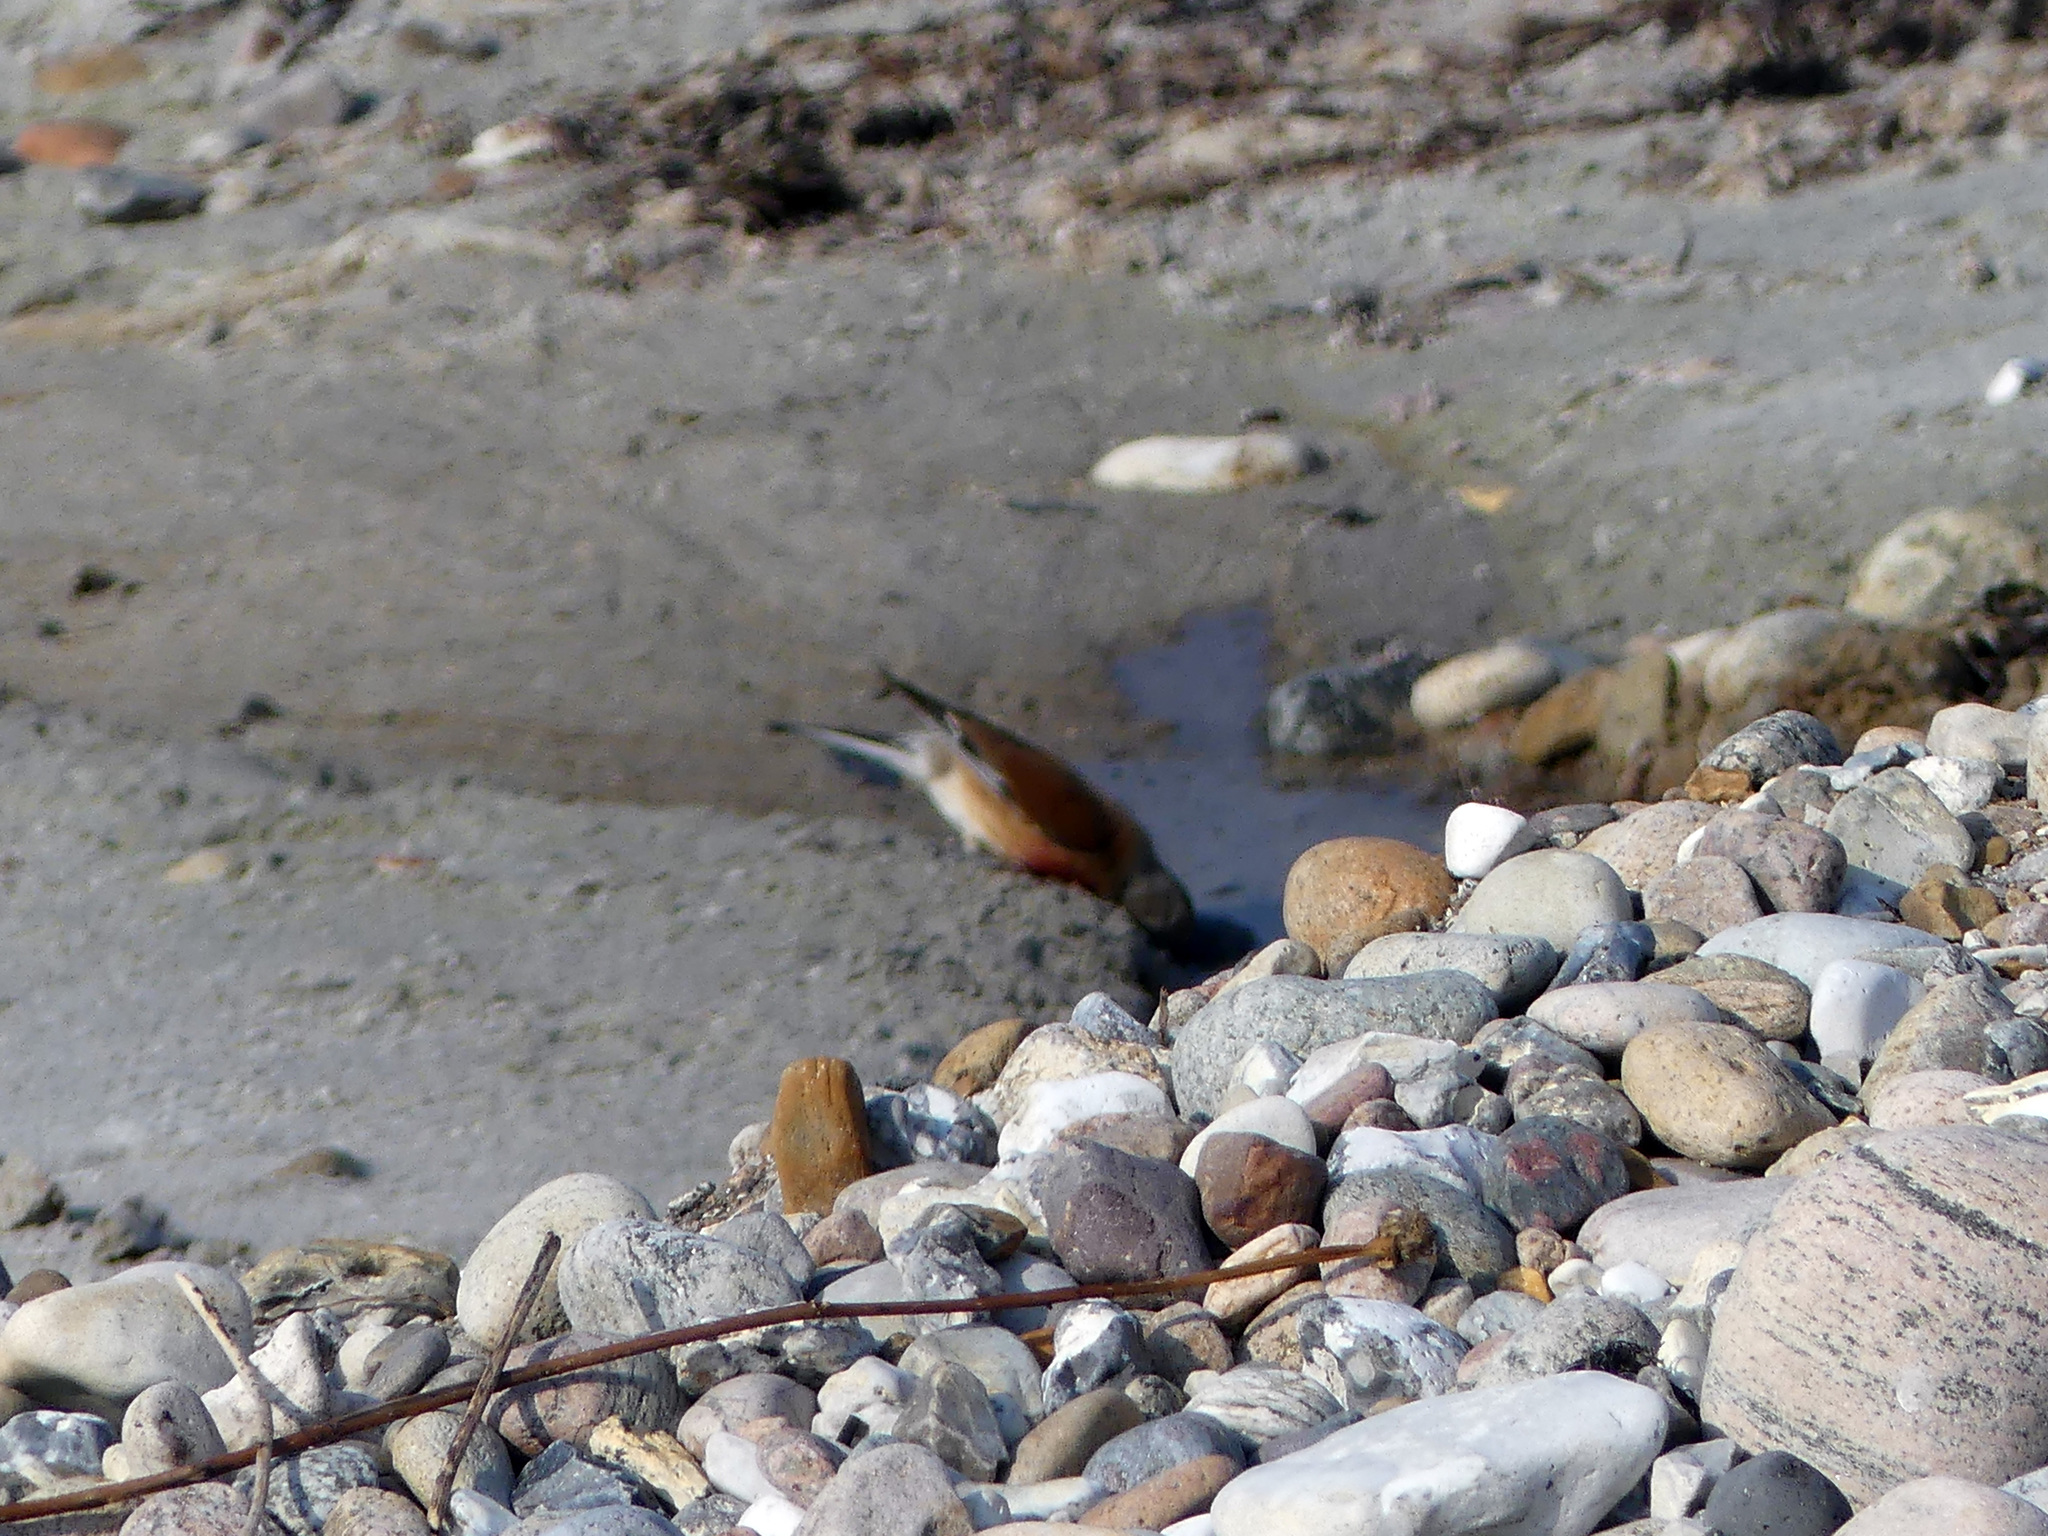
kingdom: Animalia
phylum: Chordata
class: Aves
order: Passeriformes
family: Fringillidae
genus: Linaria
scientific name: Linaria cannabina
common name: Common linnet
